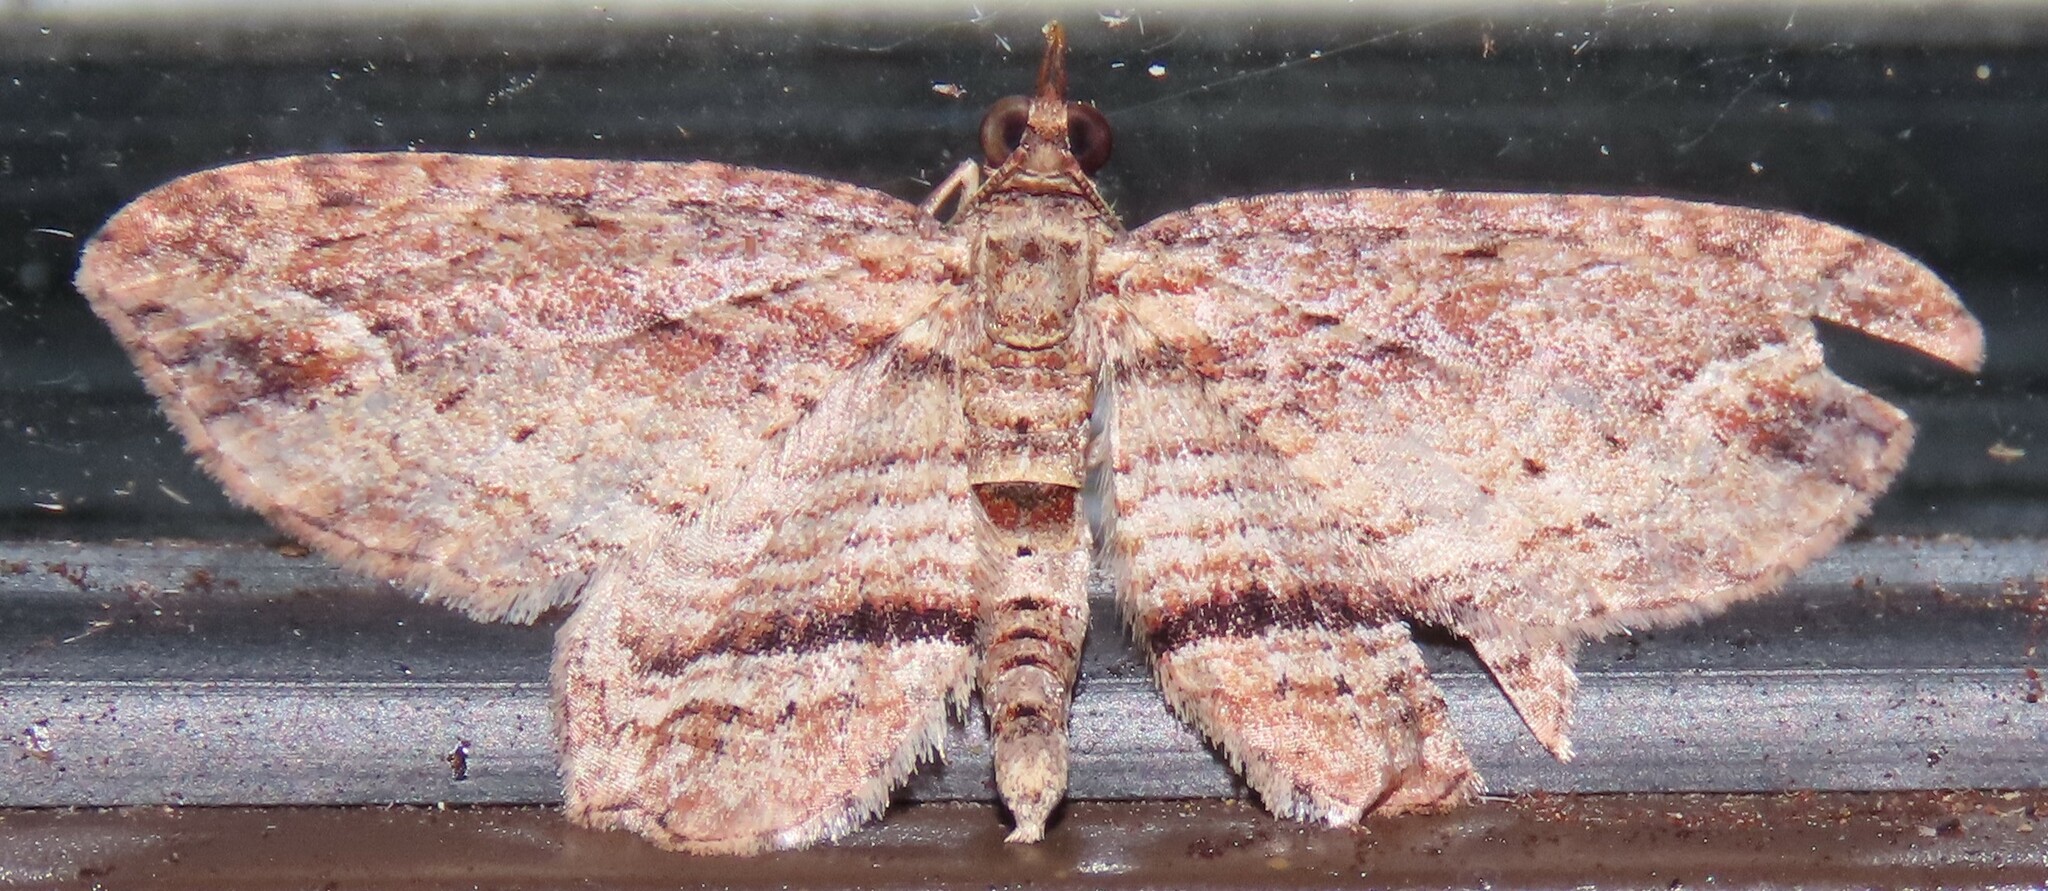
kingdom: Animalia
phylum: Arthropoda
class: Insecta
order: Lepidoptera
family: Geometridae
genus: Chloroclystis
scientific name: Chloroclystis filata
